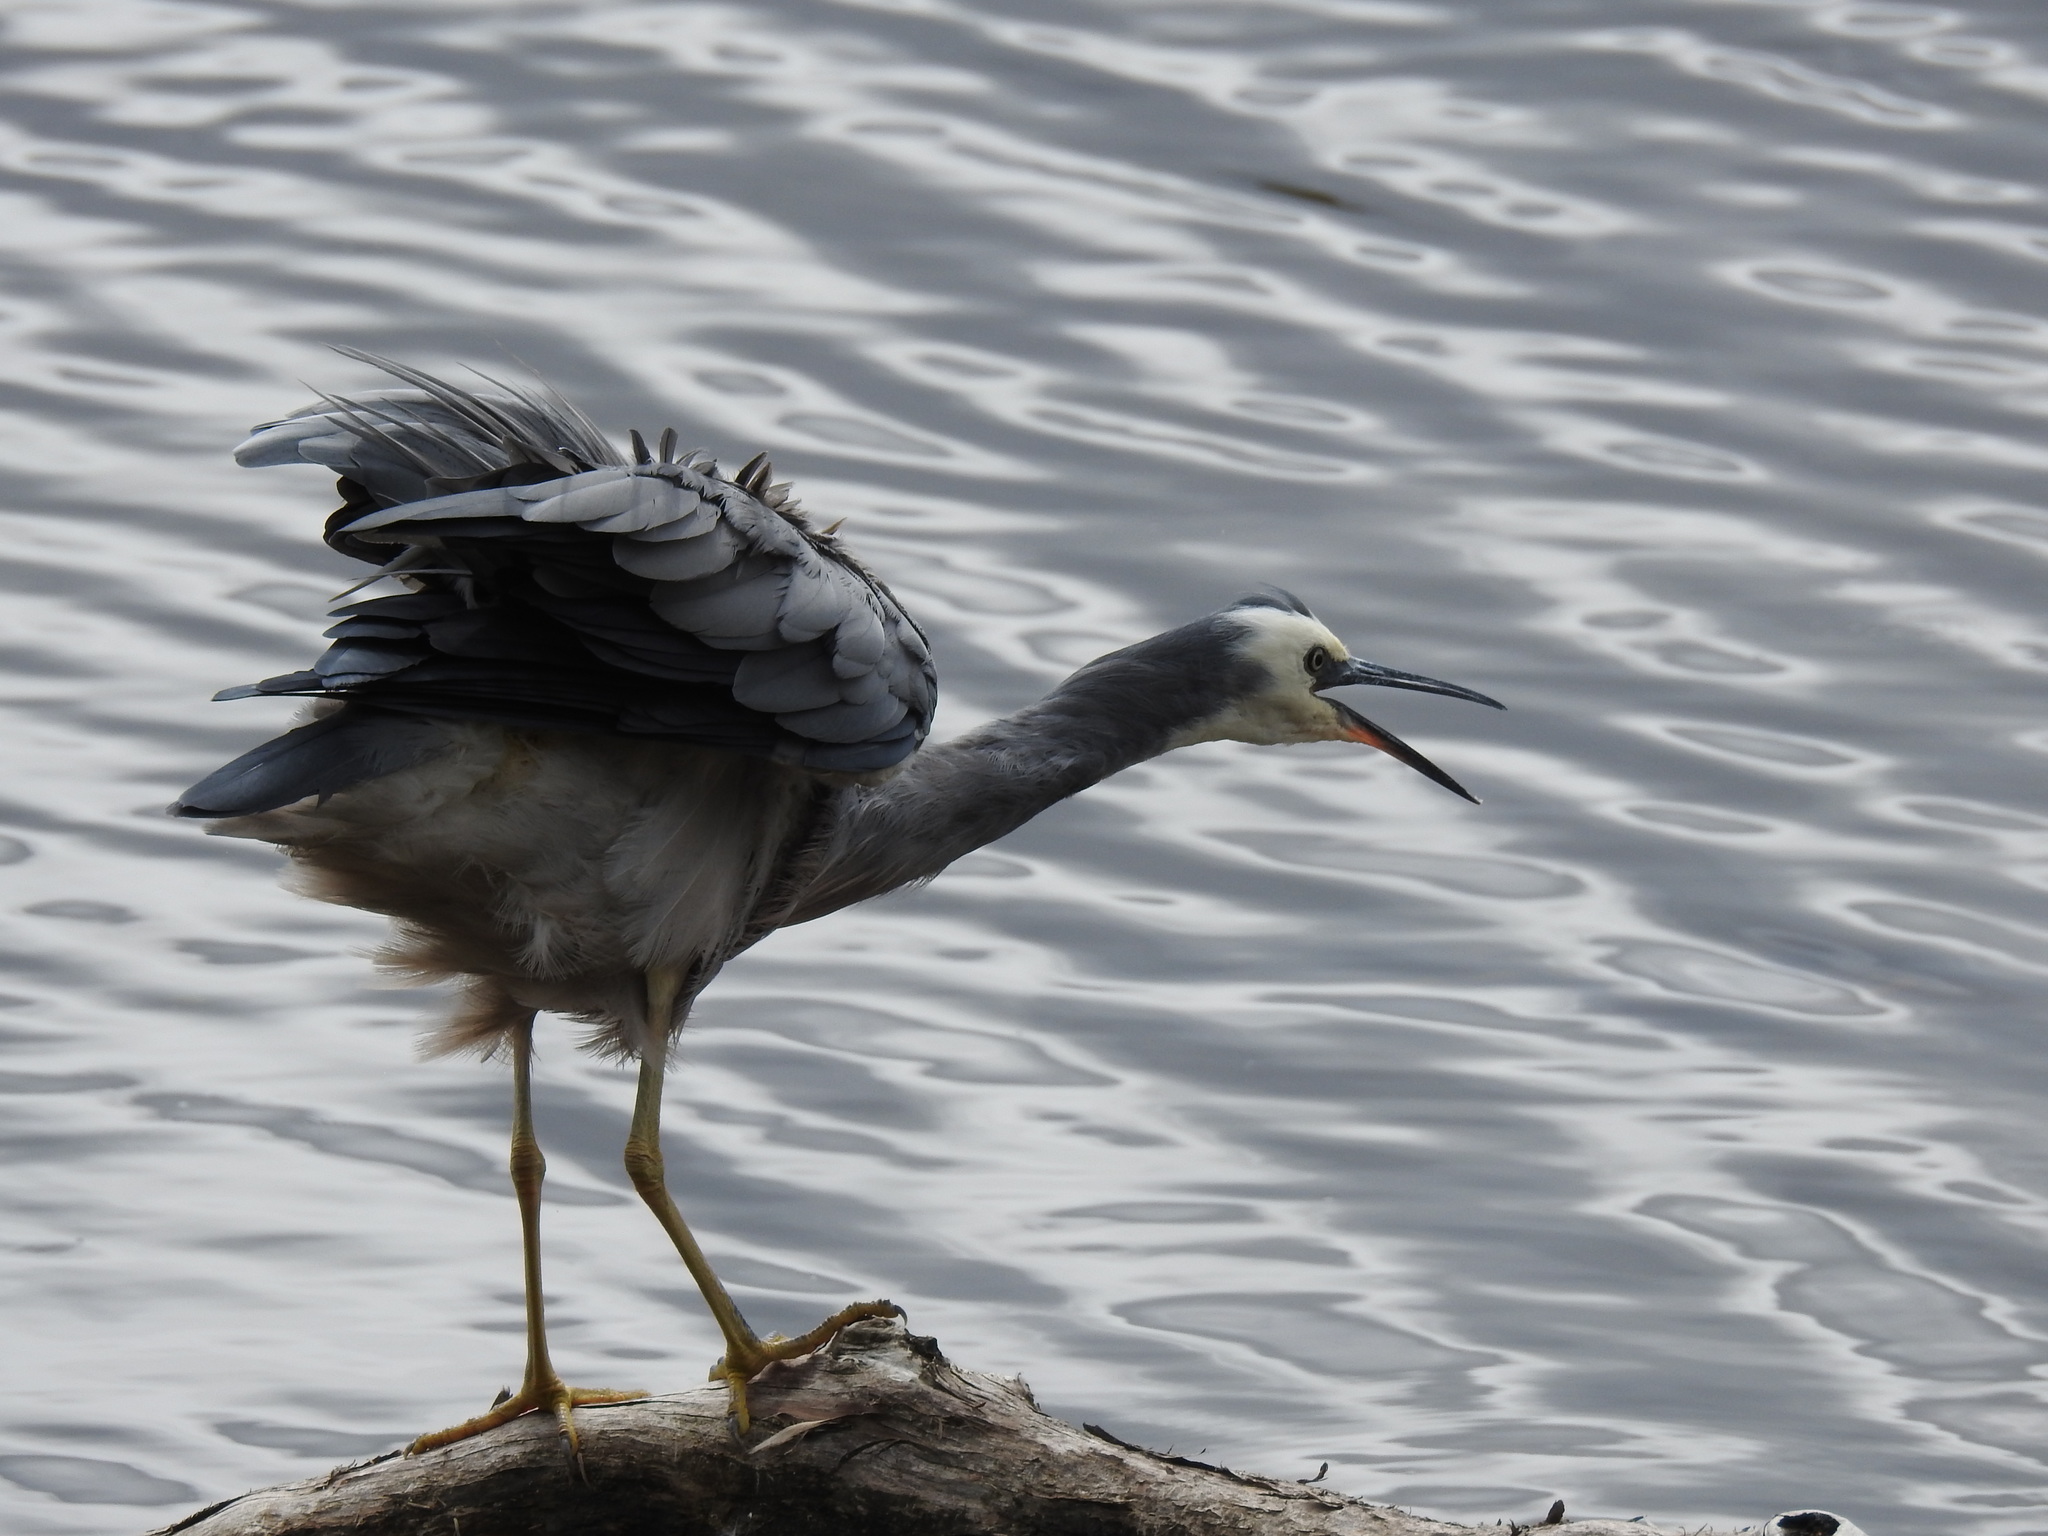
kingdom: Animalia
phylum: Chordata
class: Aves
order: Pelecaniformes
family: Ardeidae
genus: Egretta
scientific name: Egretta novaehollandiae
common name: White-faced heron
